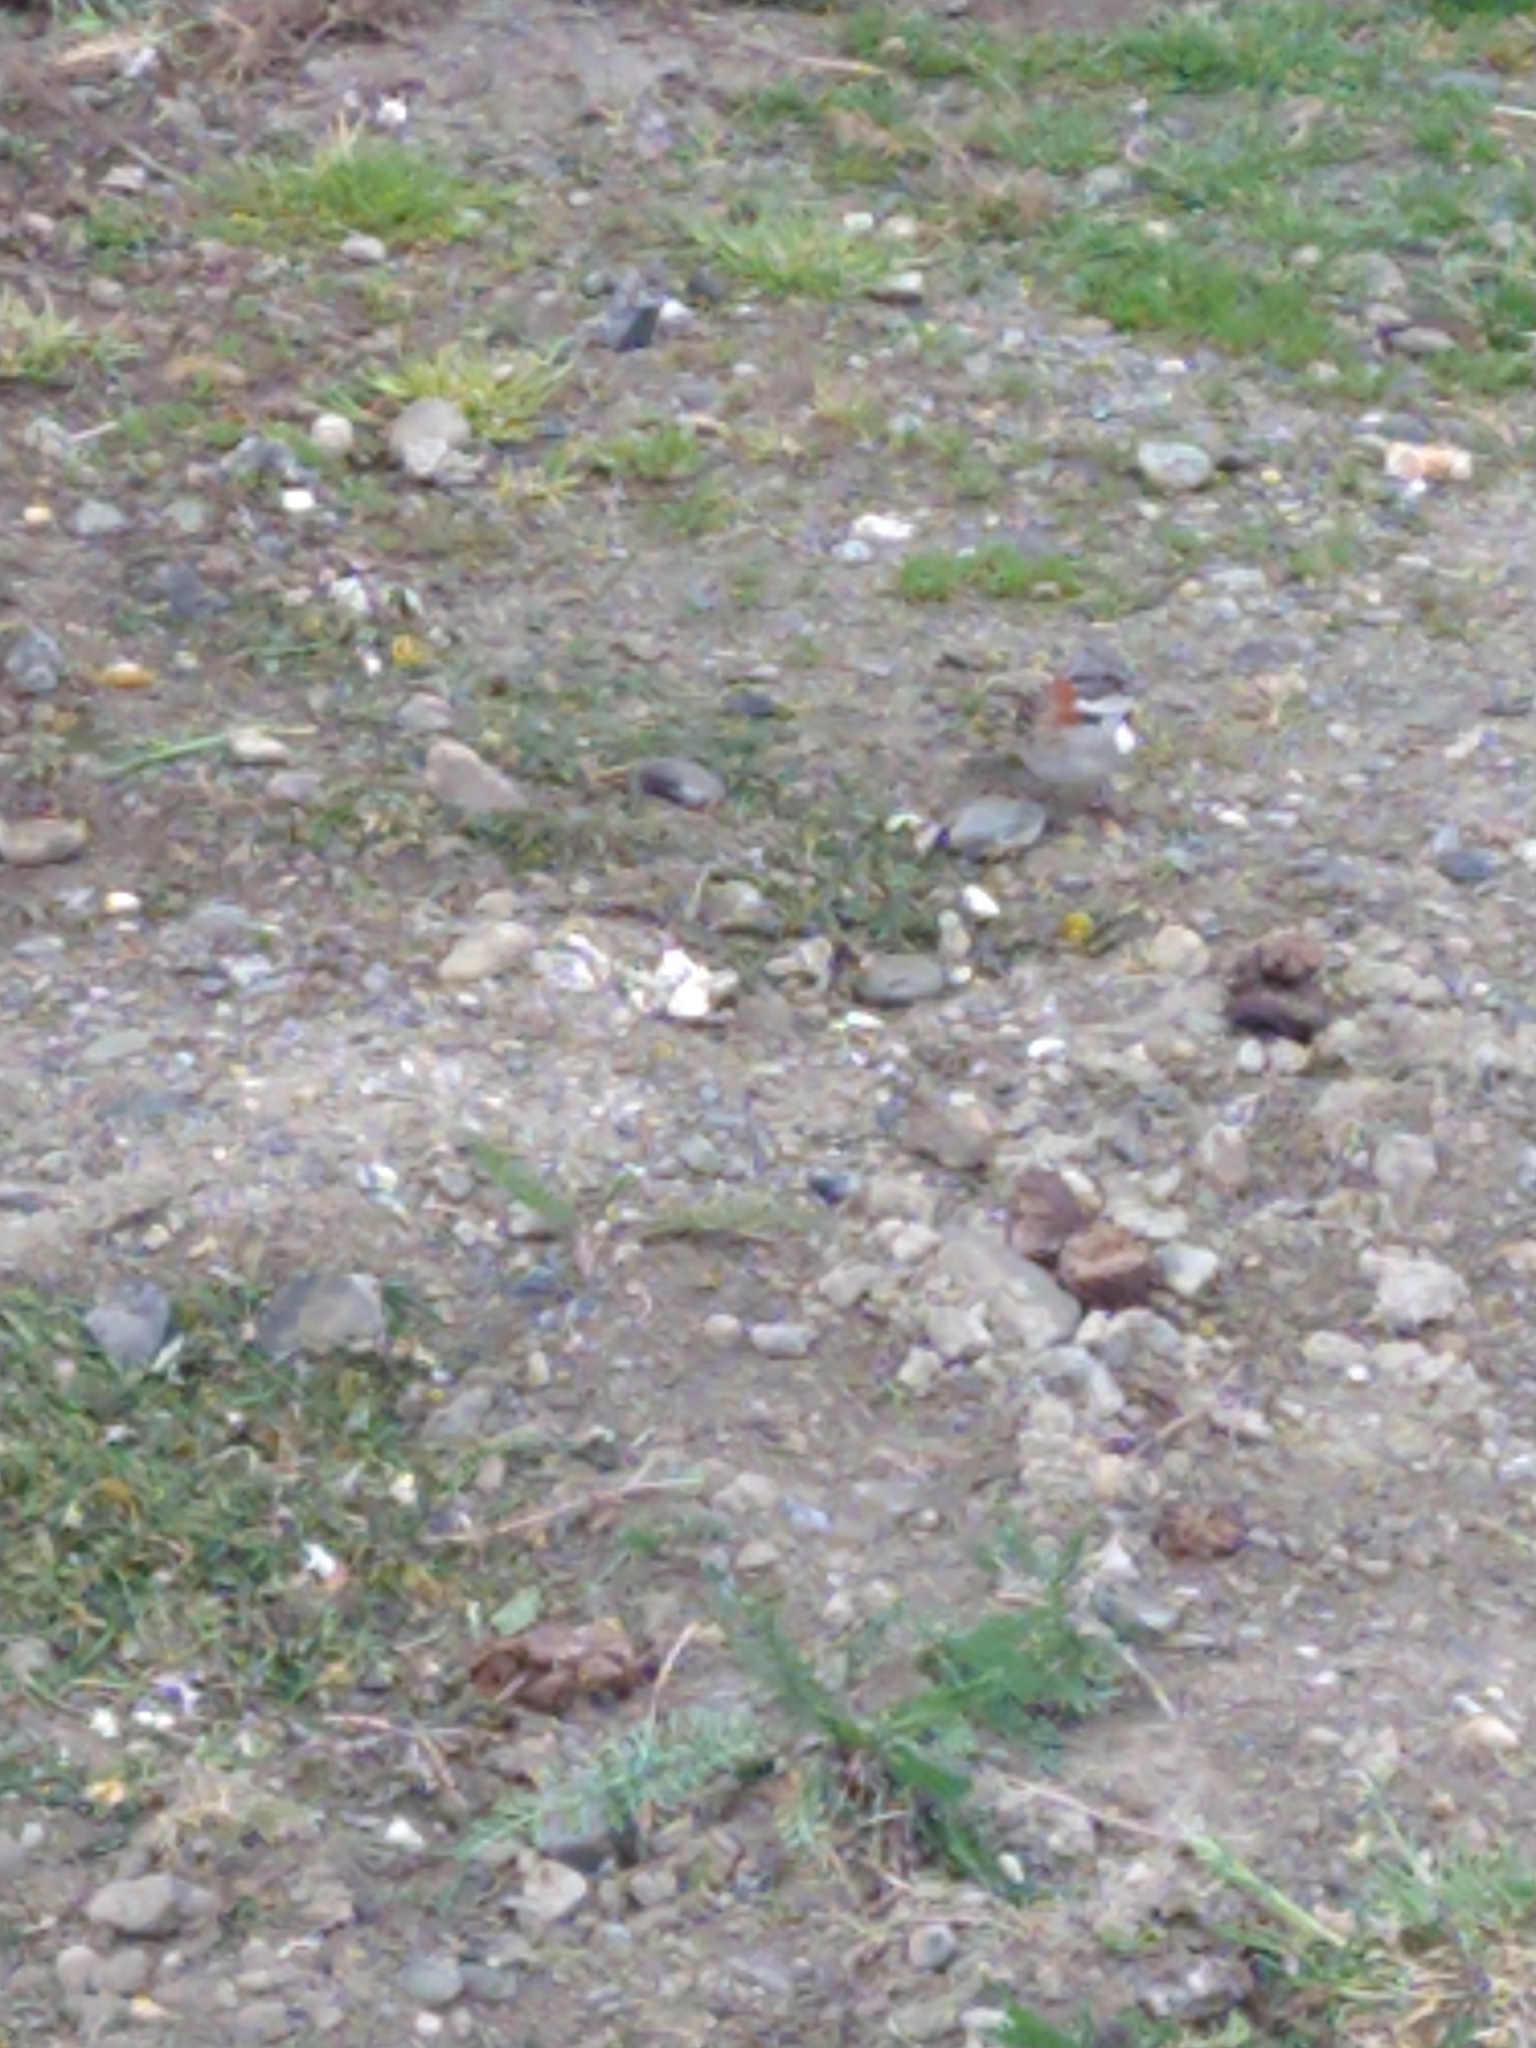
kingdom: Animalia
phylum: Chordata
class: Aves
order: Passeriformes
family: Passerellidae
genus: Zonotrichia
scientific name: Zonotrichia capensis
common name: Rufous-collared sparrow
